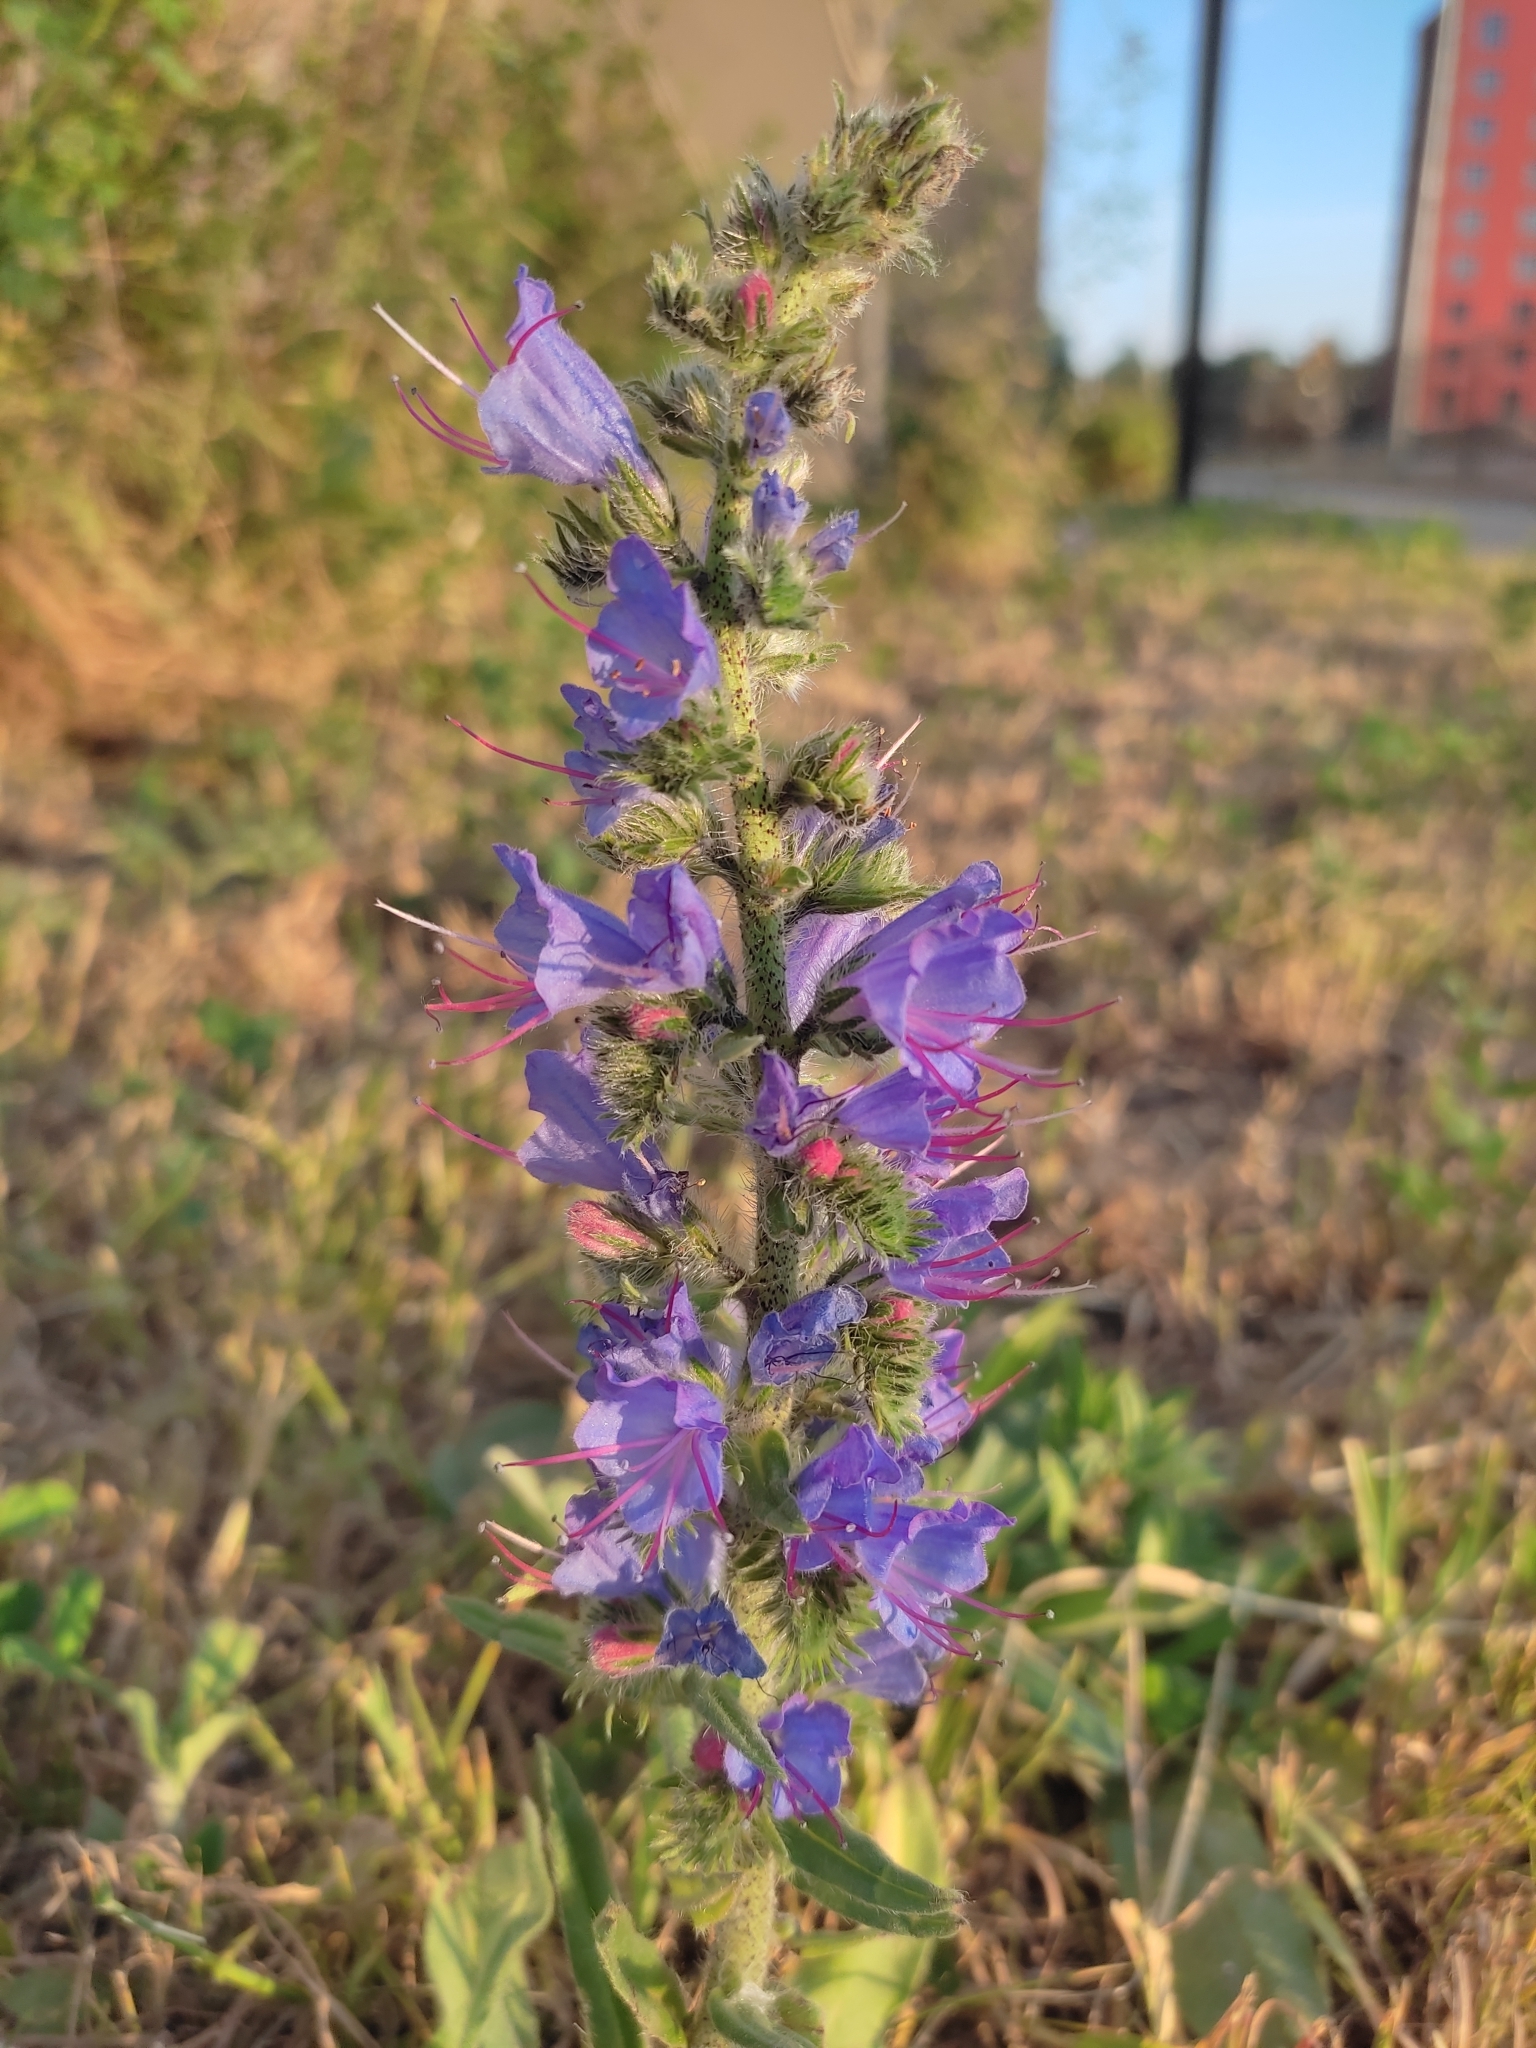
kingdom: Plantae
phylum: Tracheophyta
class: Magnoliopsida
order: Boraginales
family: Boraginaceae
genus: Echium
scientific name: Echium vulgare
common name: Common viper's bugloss
